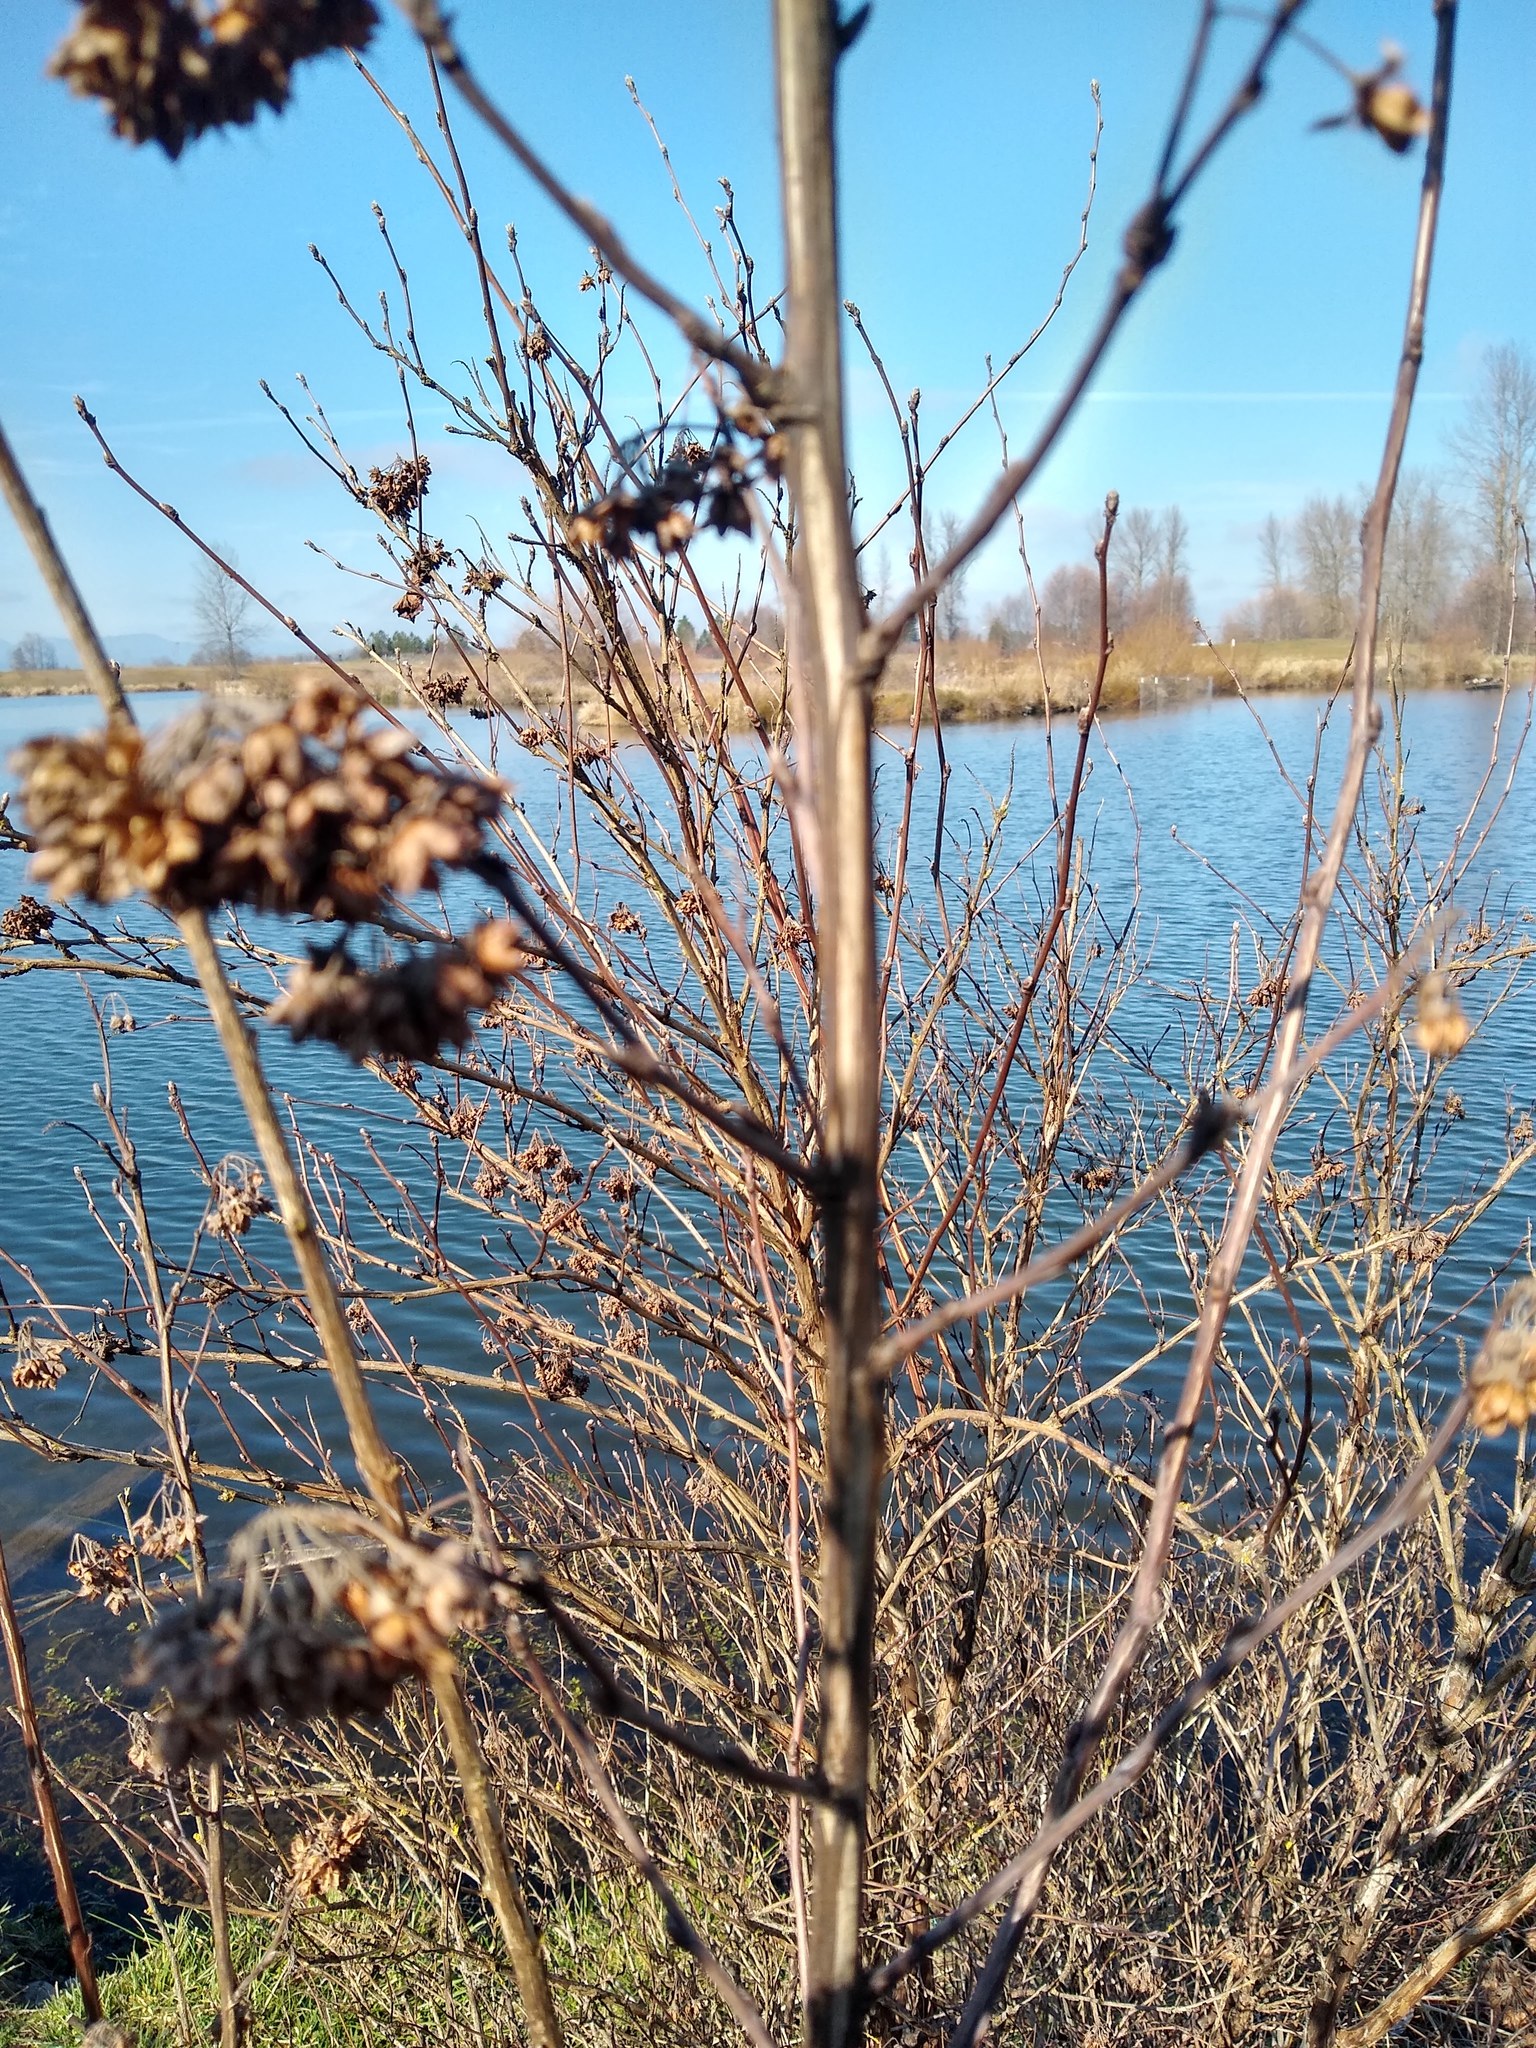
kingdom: Plantae
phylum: Tracheophyta
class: Magnoliopsida
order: Rosales
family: Rosaceae
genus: Physocarpus
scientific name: Physocarpus capitatus
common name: Pacific ninebark
